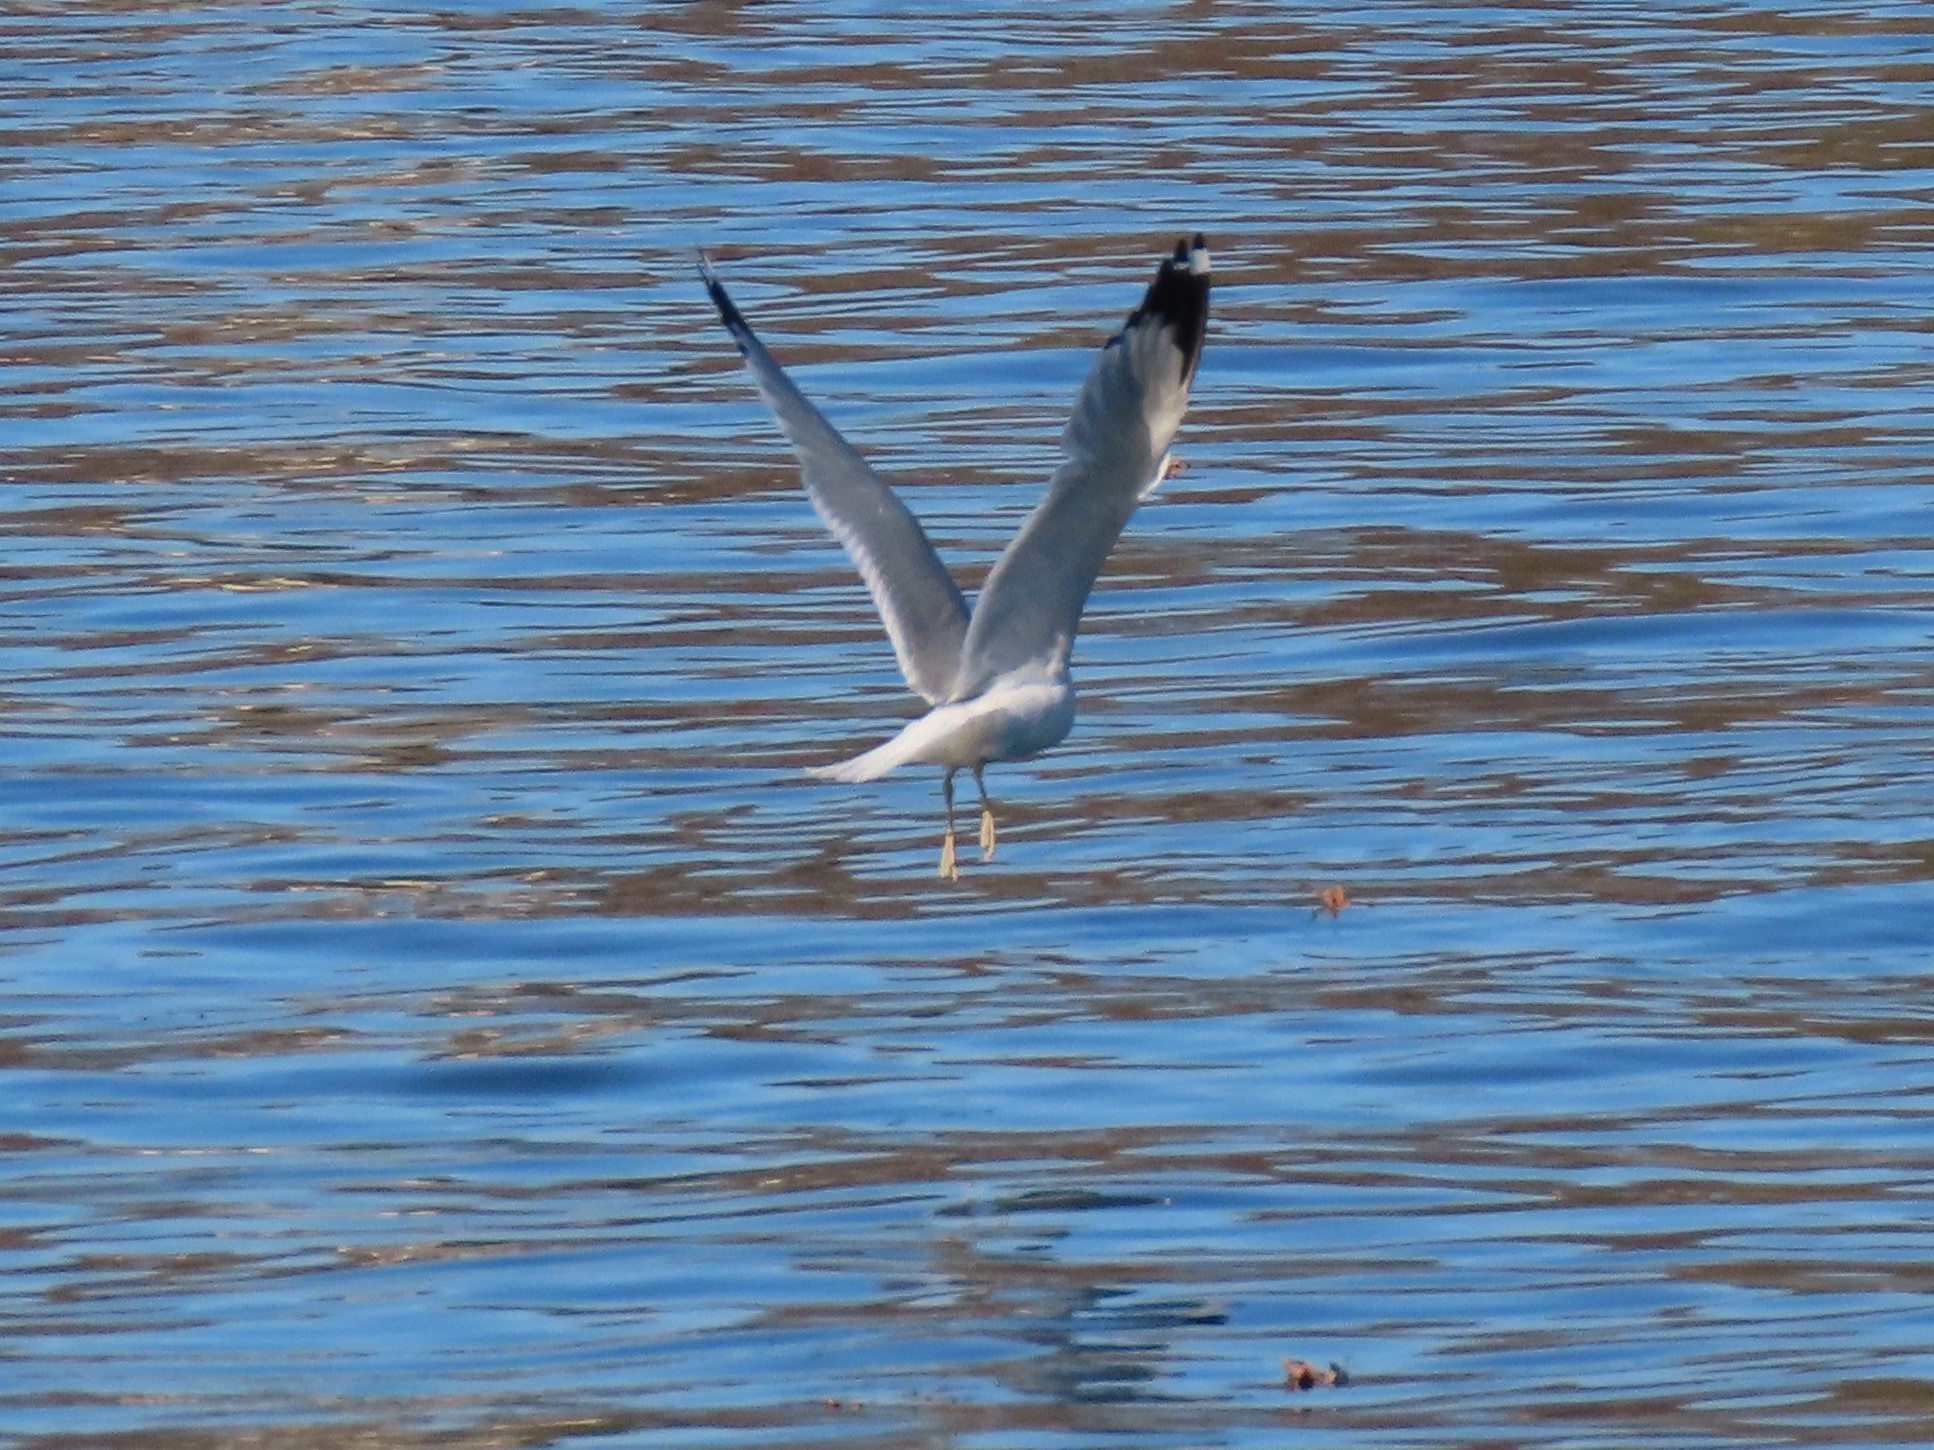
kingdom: Animalia
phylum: Chordata
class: Aves
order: Charadriiformes
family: Laridae
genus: Larus
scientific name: Larus delawarensis
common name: Ring-billed gull
